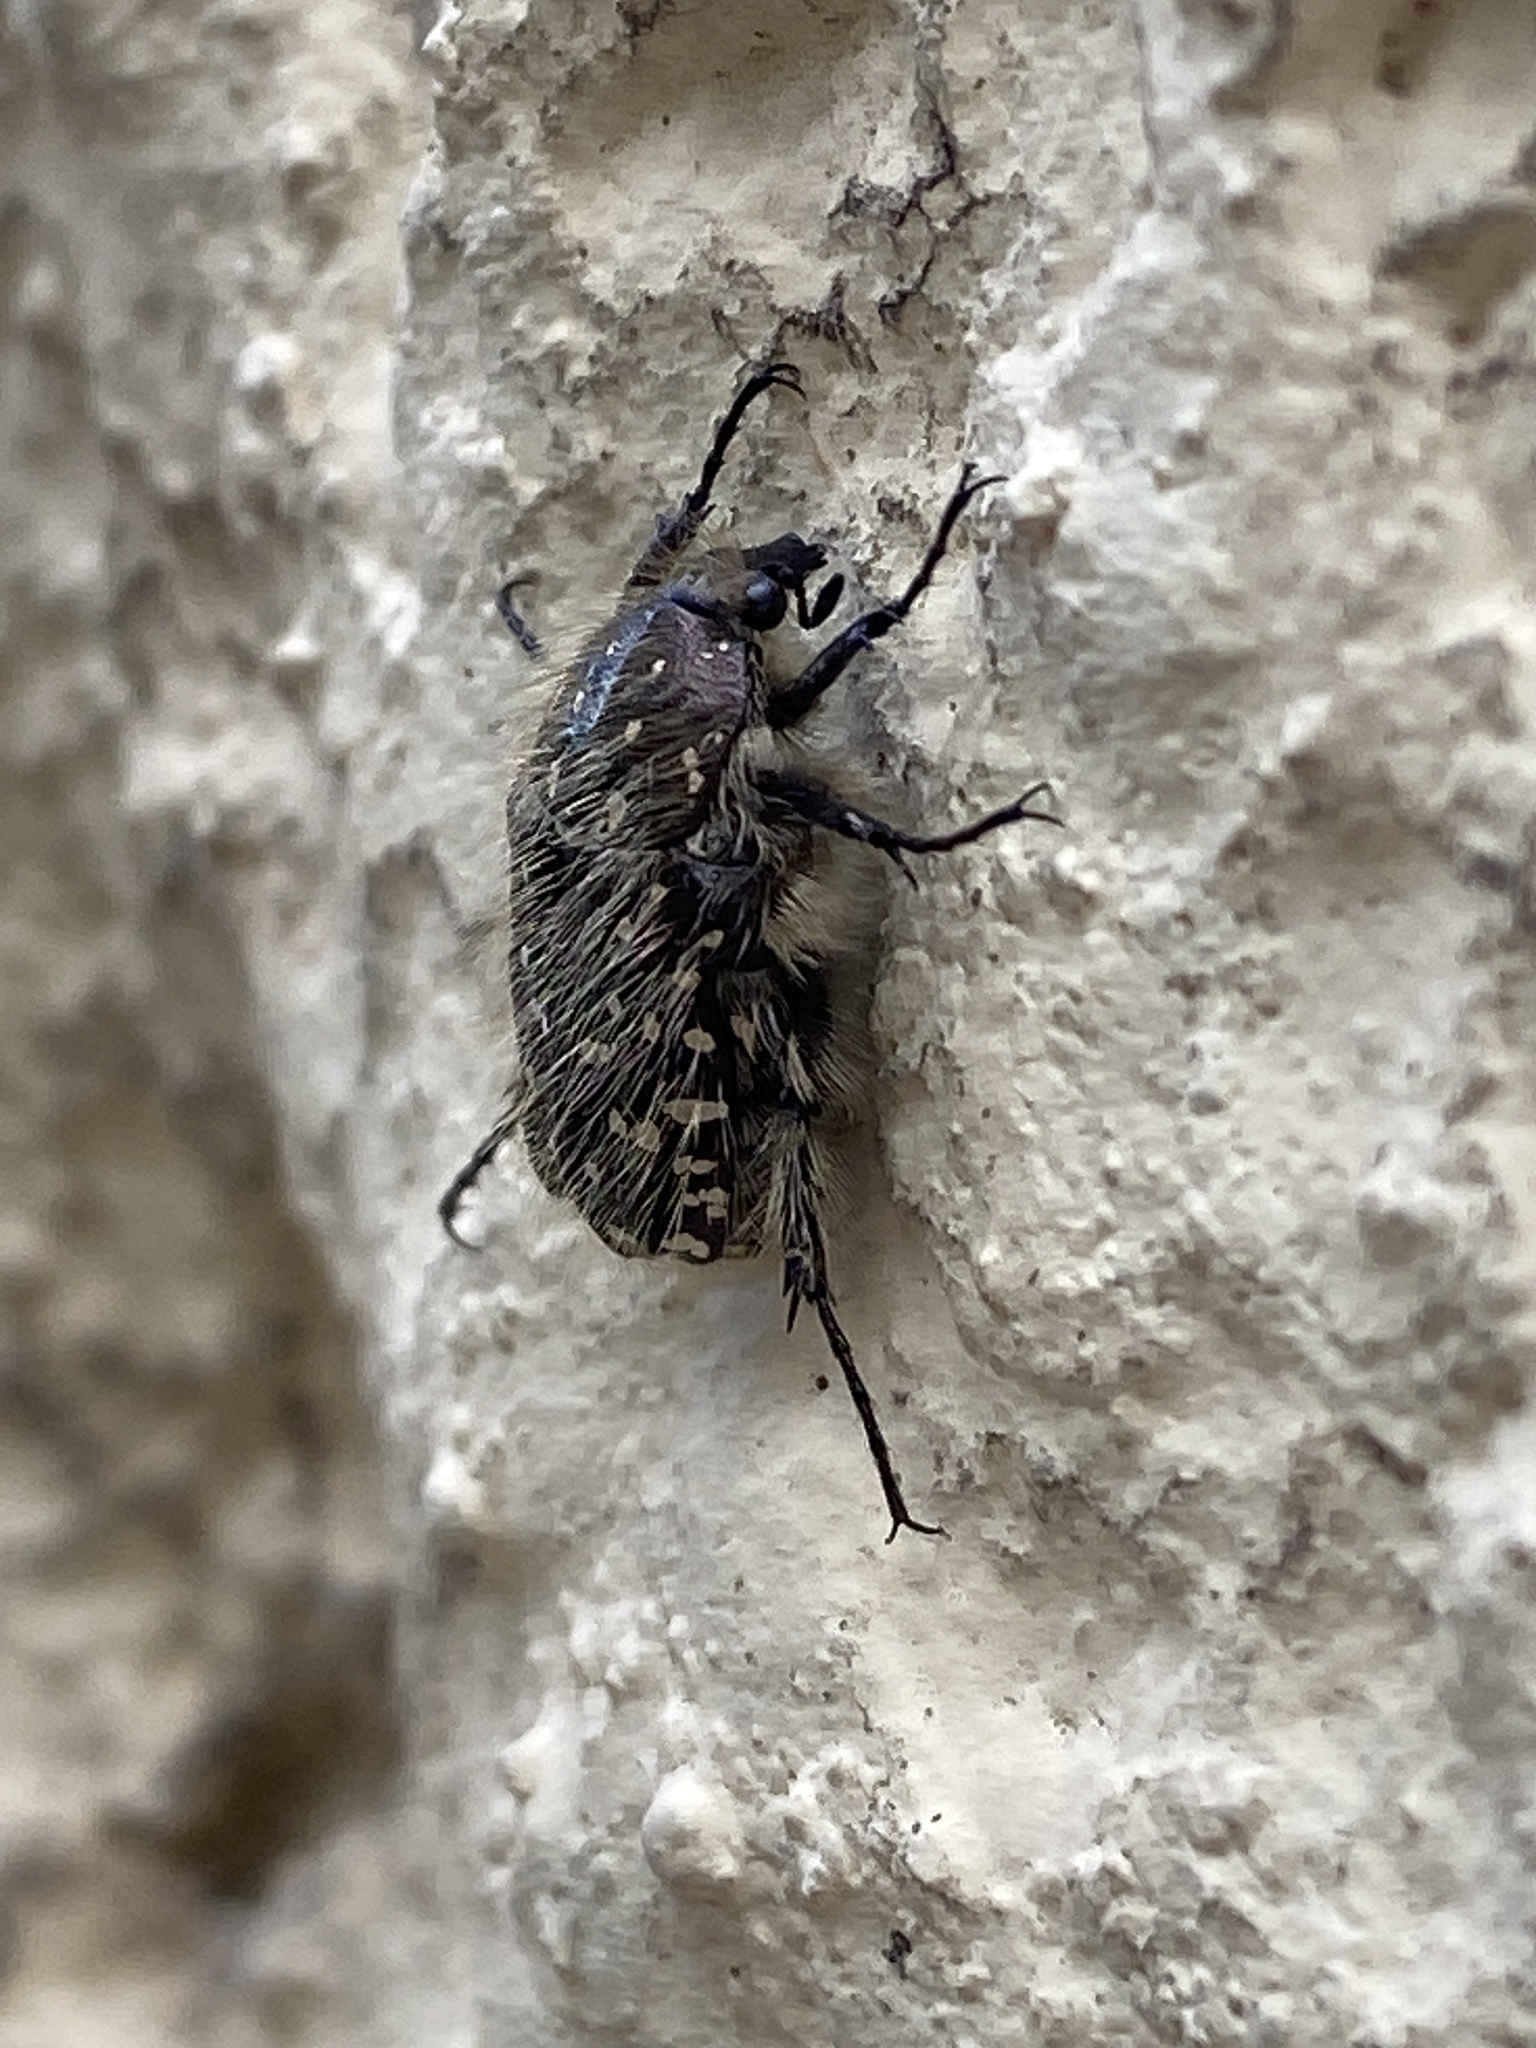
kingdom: Animalia
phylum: Arthropoda
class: Insecta
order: Coleoptera
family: Scarabaeidae
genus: Oxythyrea
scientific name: Oxythyrea funesta
